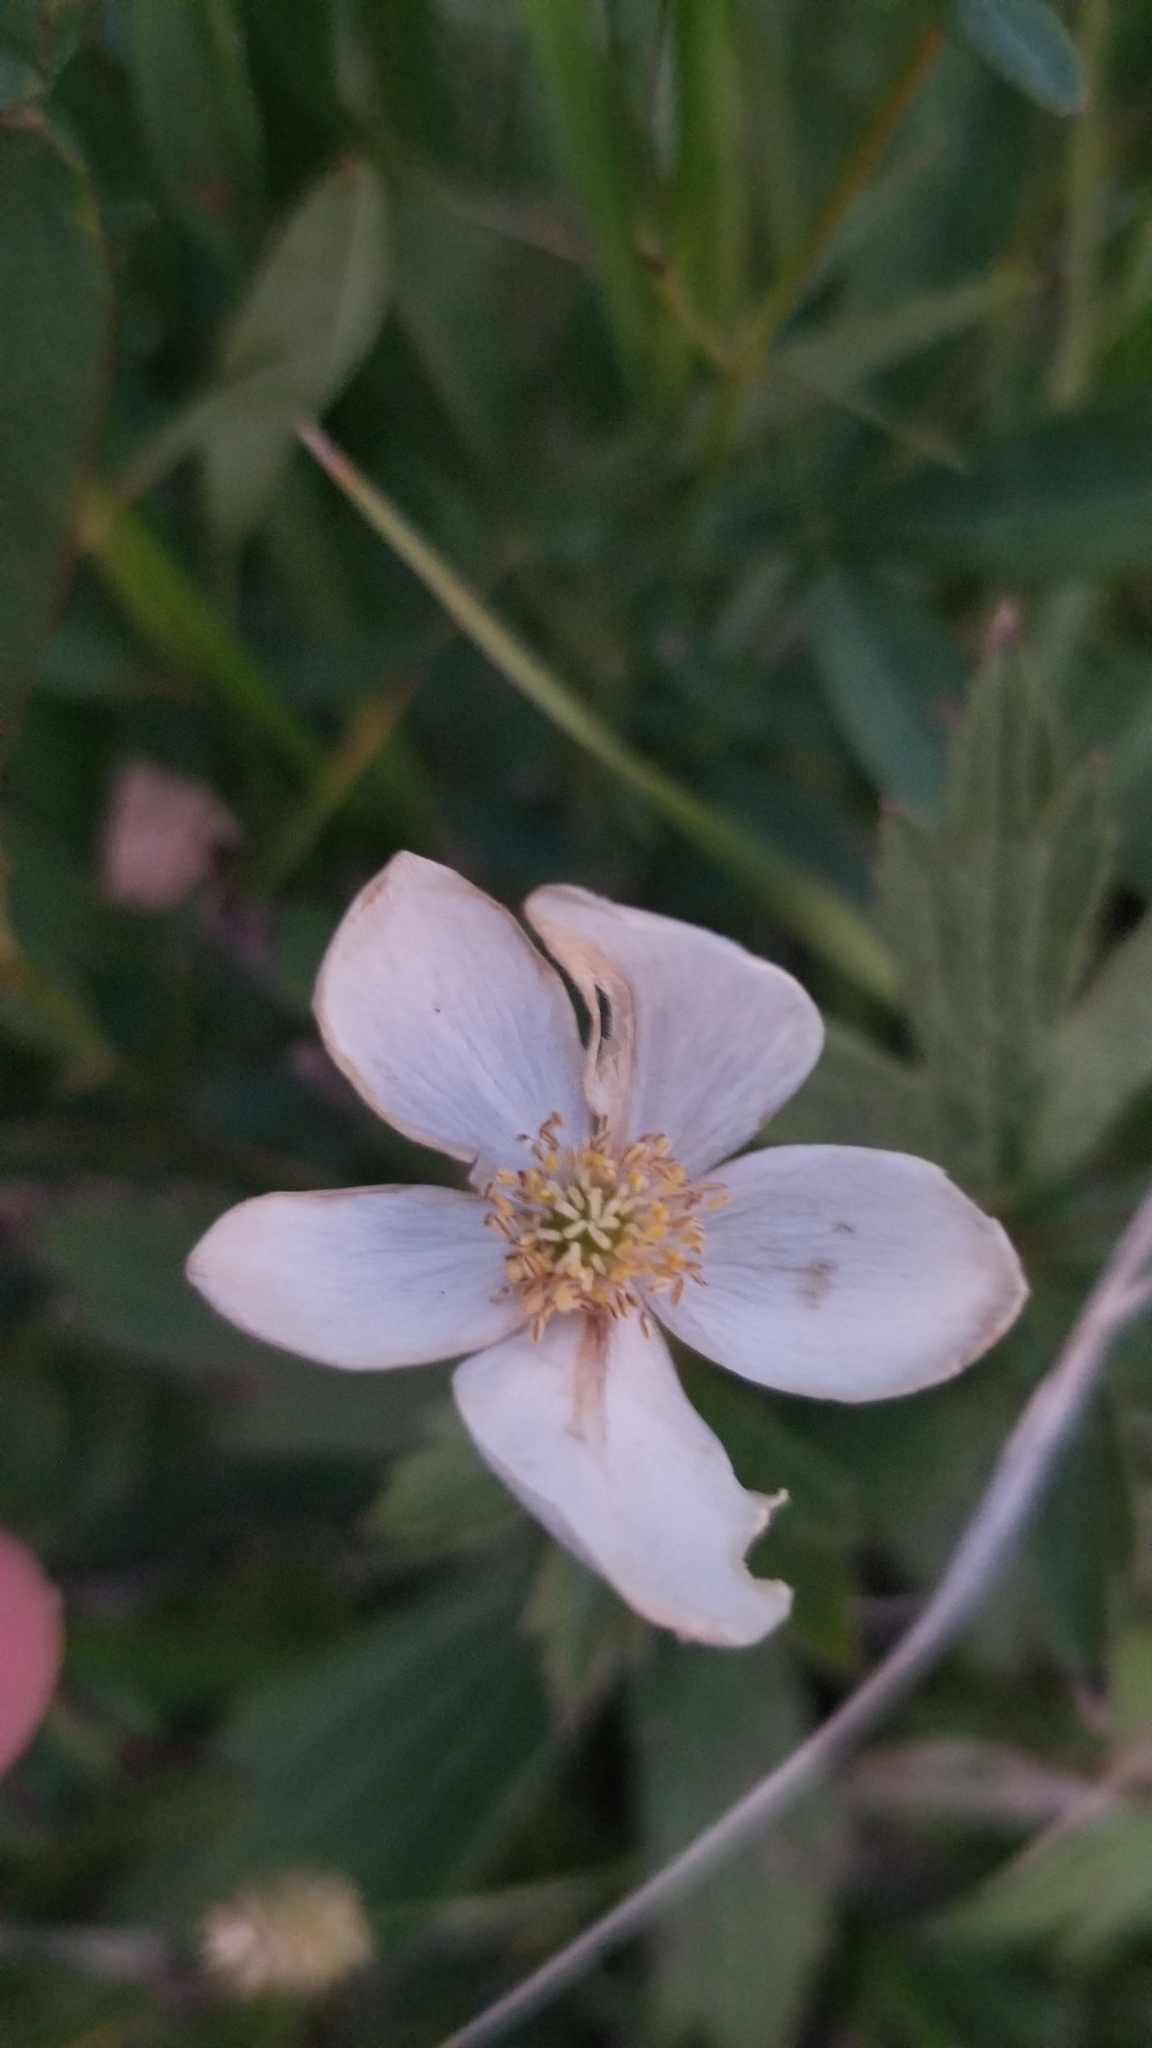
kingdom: Plantae
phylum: Tracheophyta
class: Magnoliopsida
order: Ranunculales
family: Ranunculaceae
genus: Anemonastrum
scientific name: Anemonastrum canadense
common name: Canada anemone
